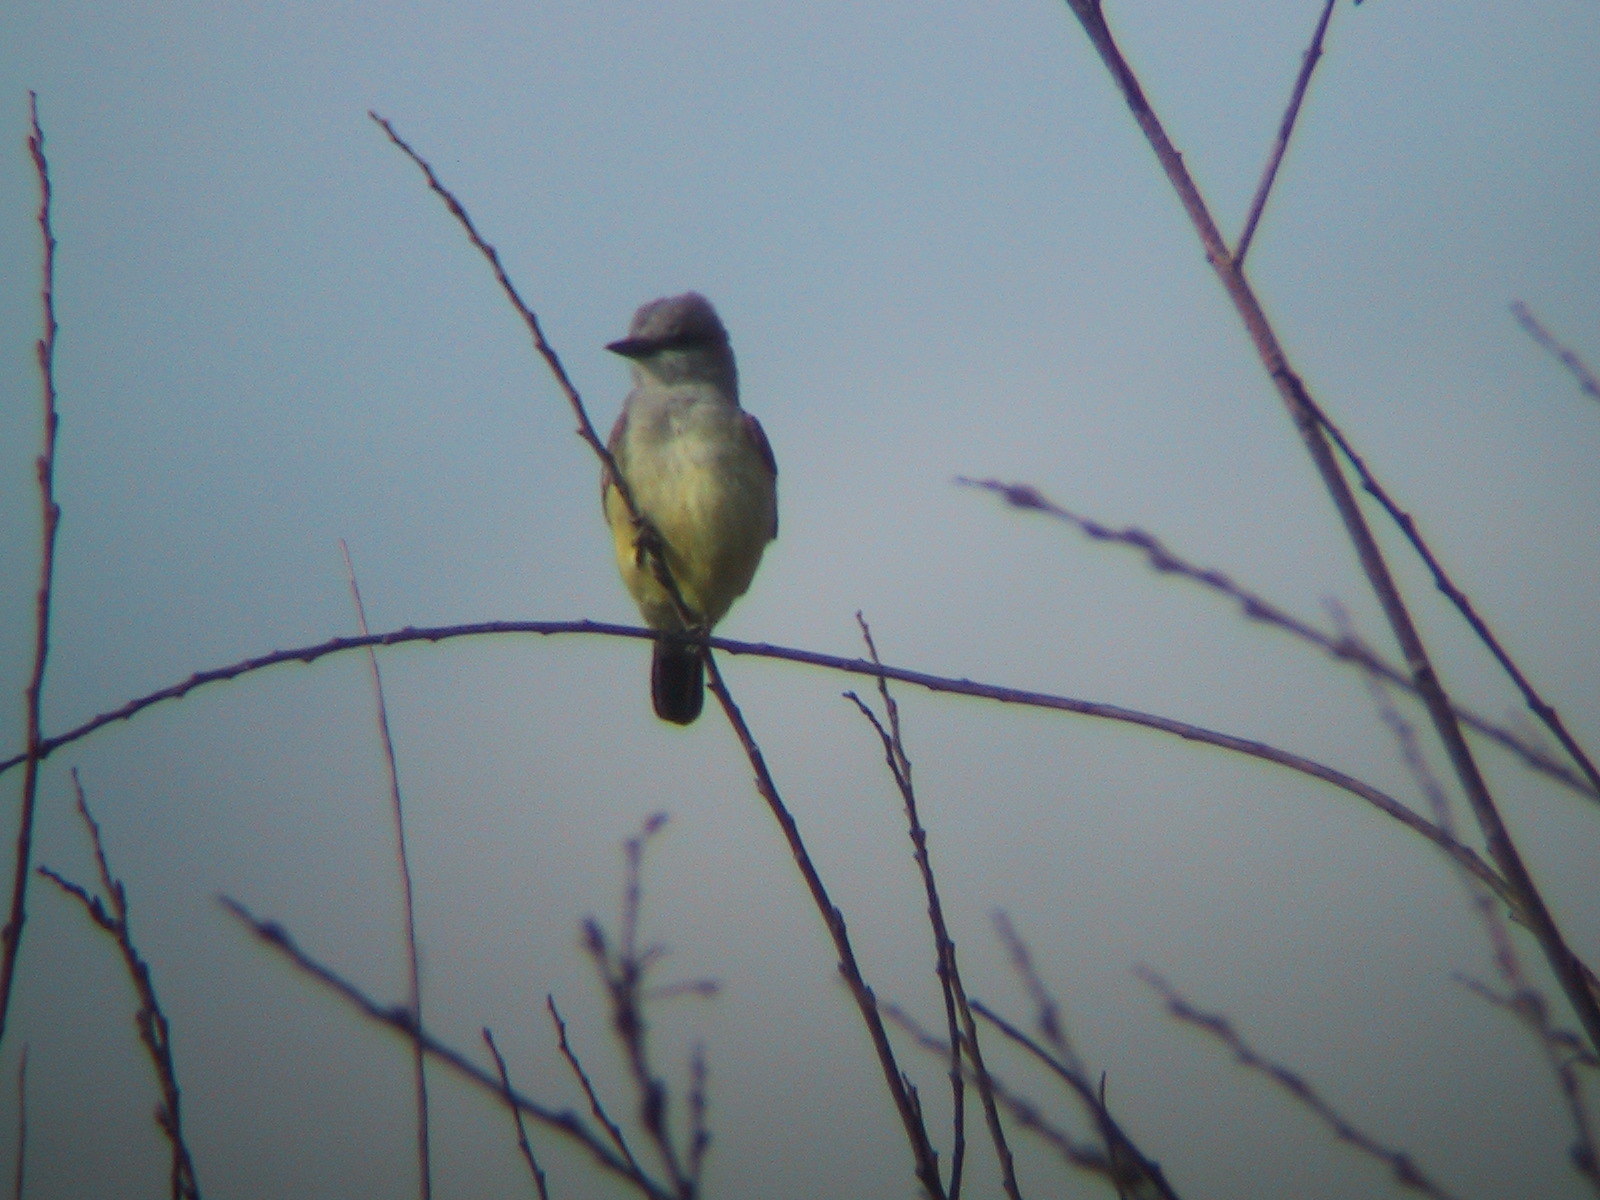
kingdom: Animalia
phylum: Chordata
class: Aves
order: Passeriformes
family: Tyrannidae
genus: Tyrannus
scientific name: Tyrannus verticalis
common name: Western kingbird
